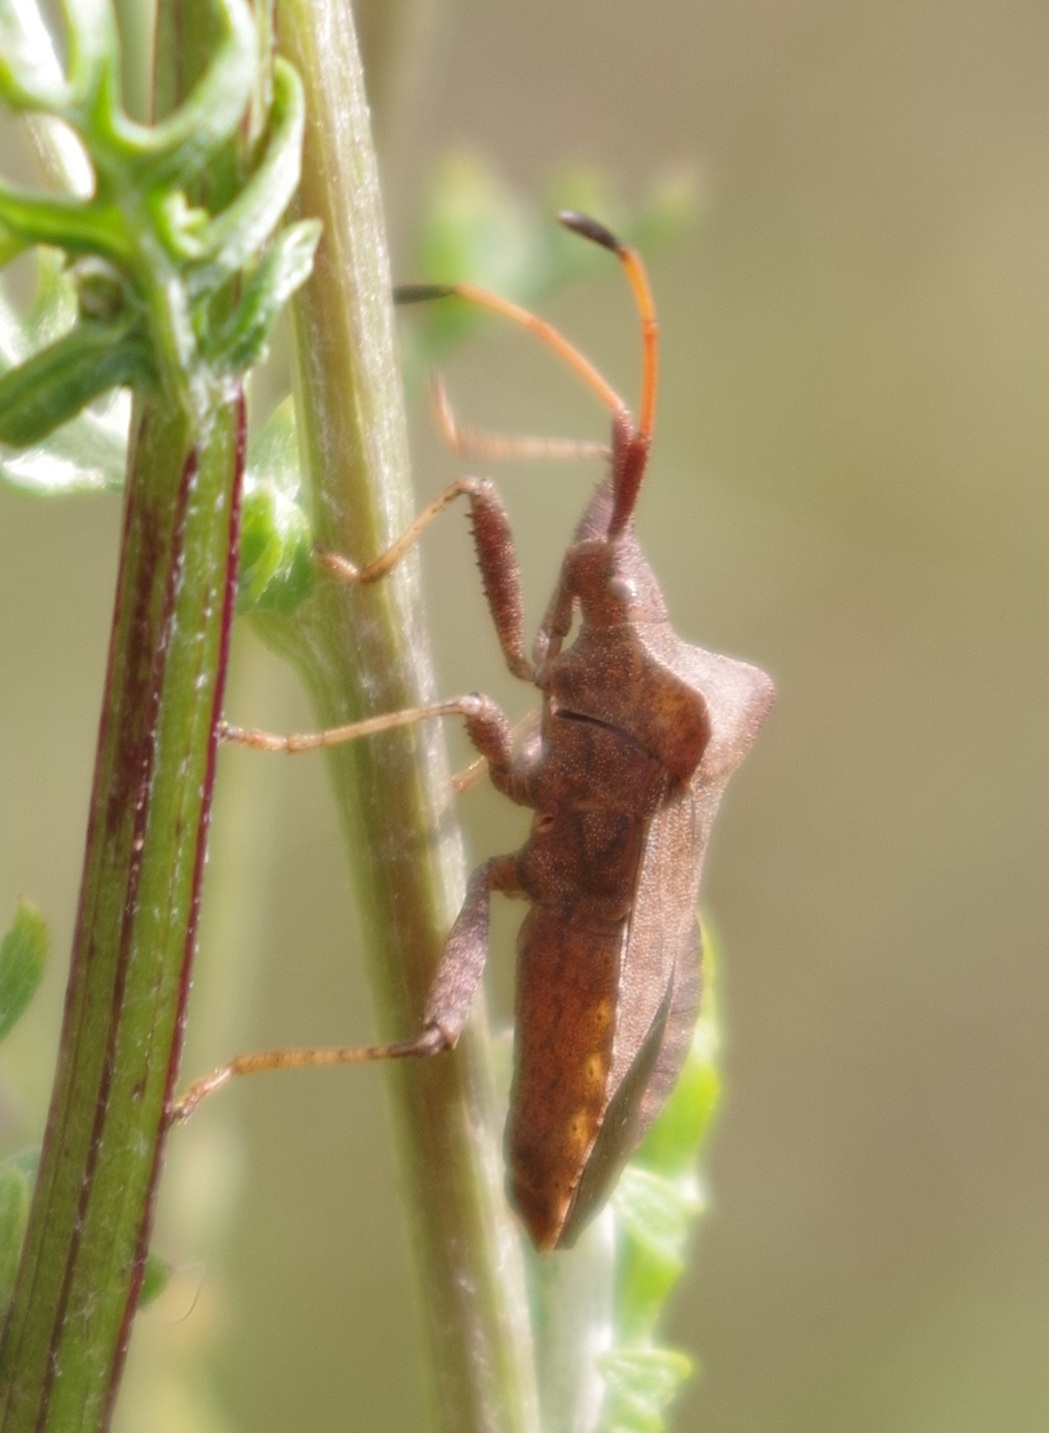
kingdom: Animalia
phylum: Arthropoda
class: Insecta
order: Hemiptera
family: Coreidae
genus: Coreus
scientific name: Coreus marginatus
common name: Dock bug
